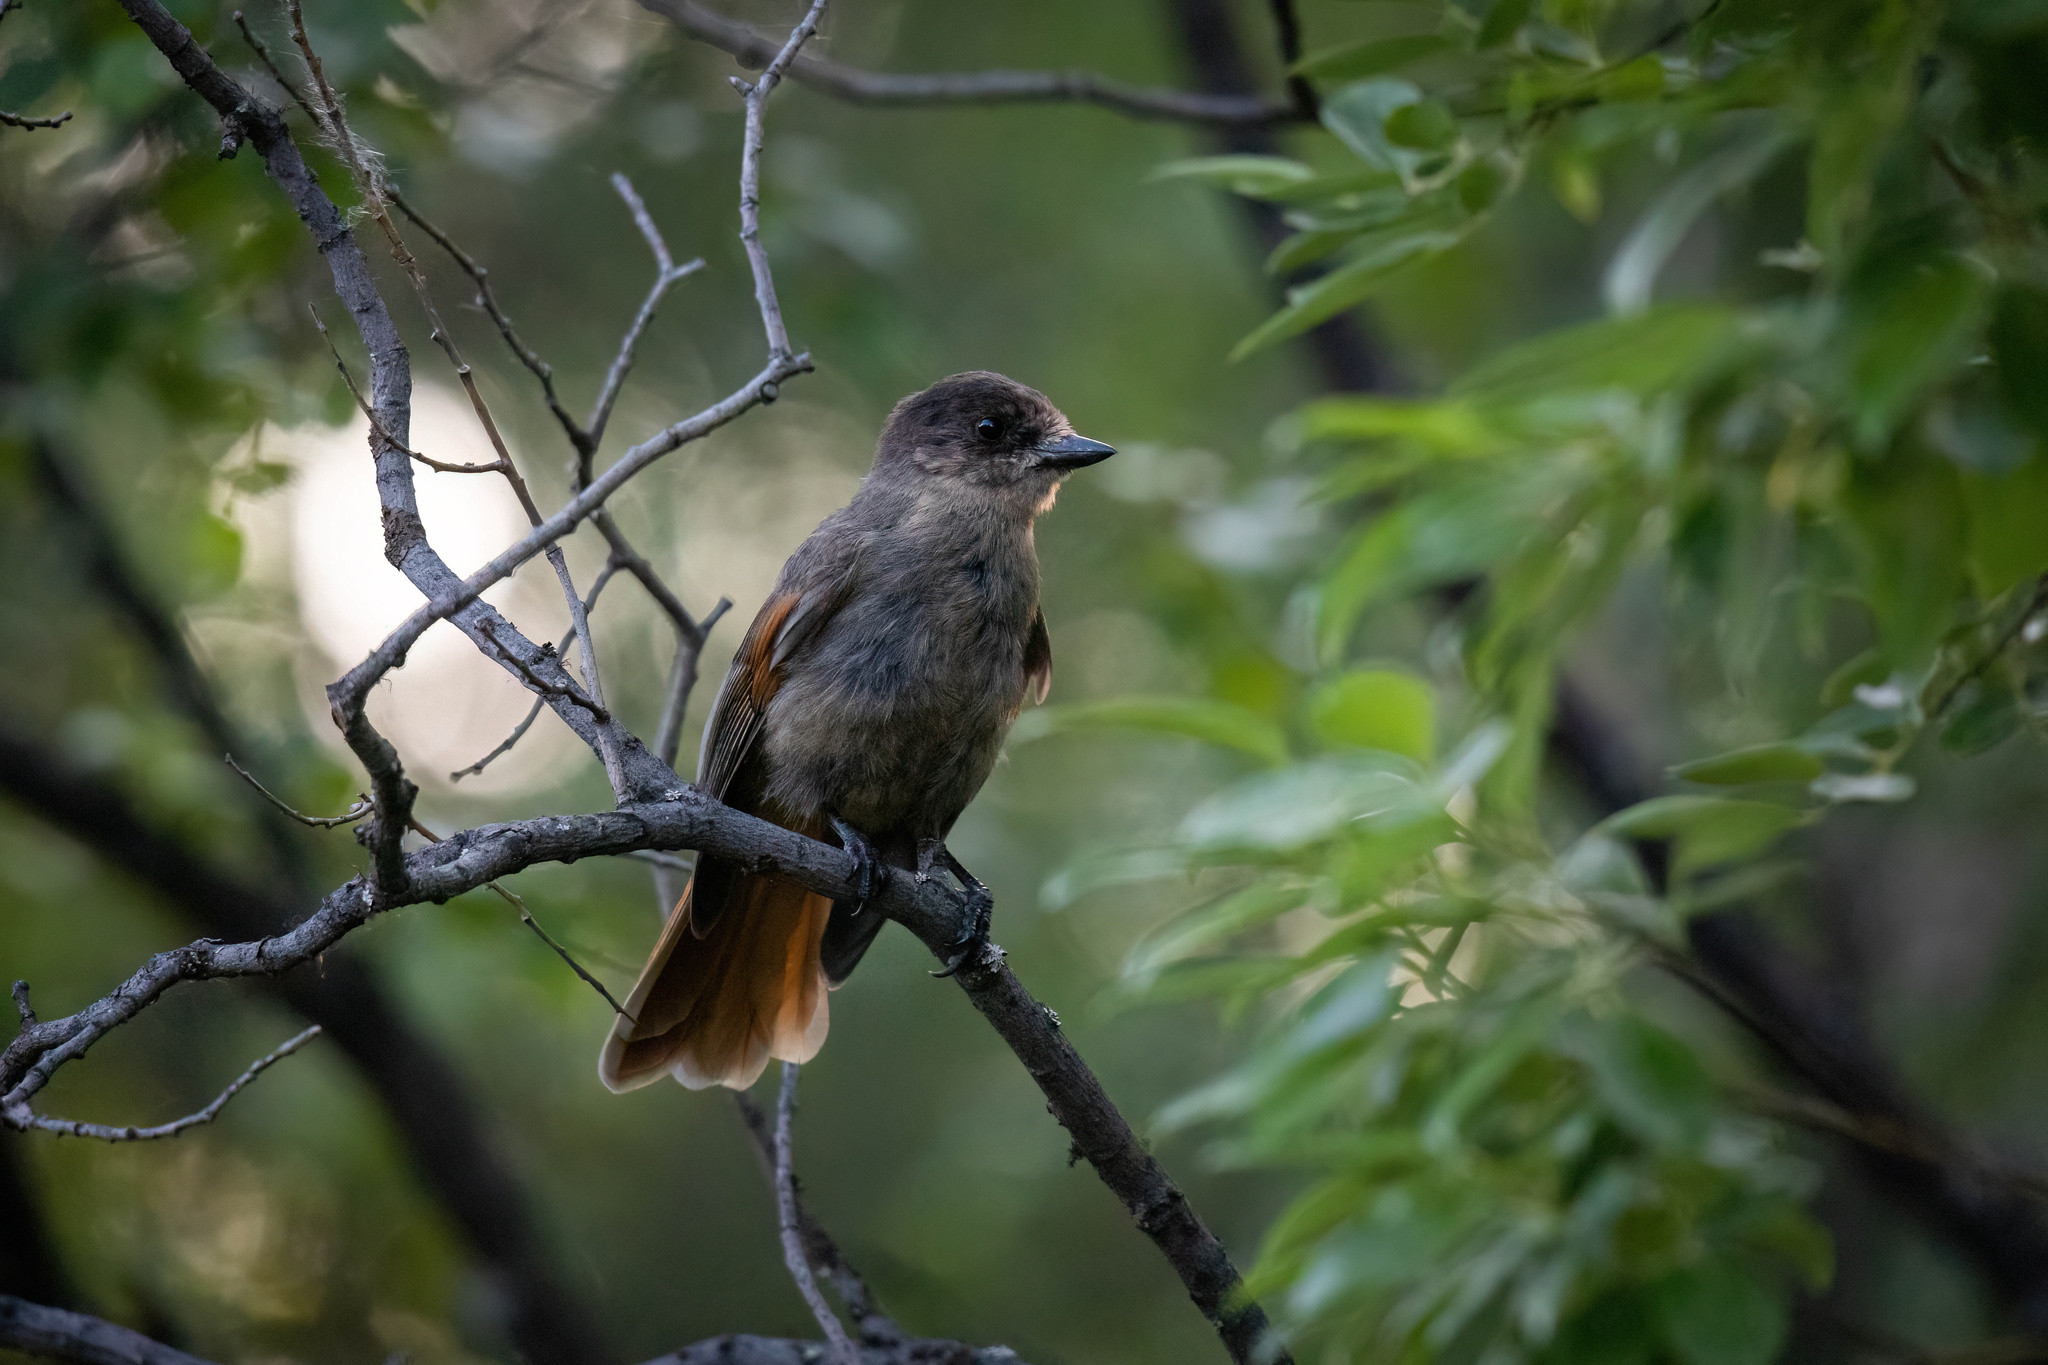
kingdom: Animalia
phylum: Chordata
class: Aves
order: Passeriformes
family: Corvidae
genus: Perisoreus
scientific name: Perisoreus infaustus
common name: Siberian jay
